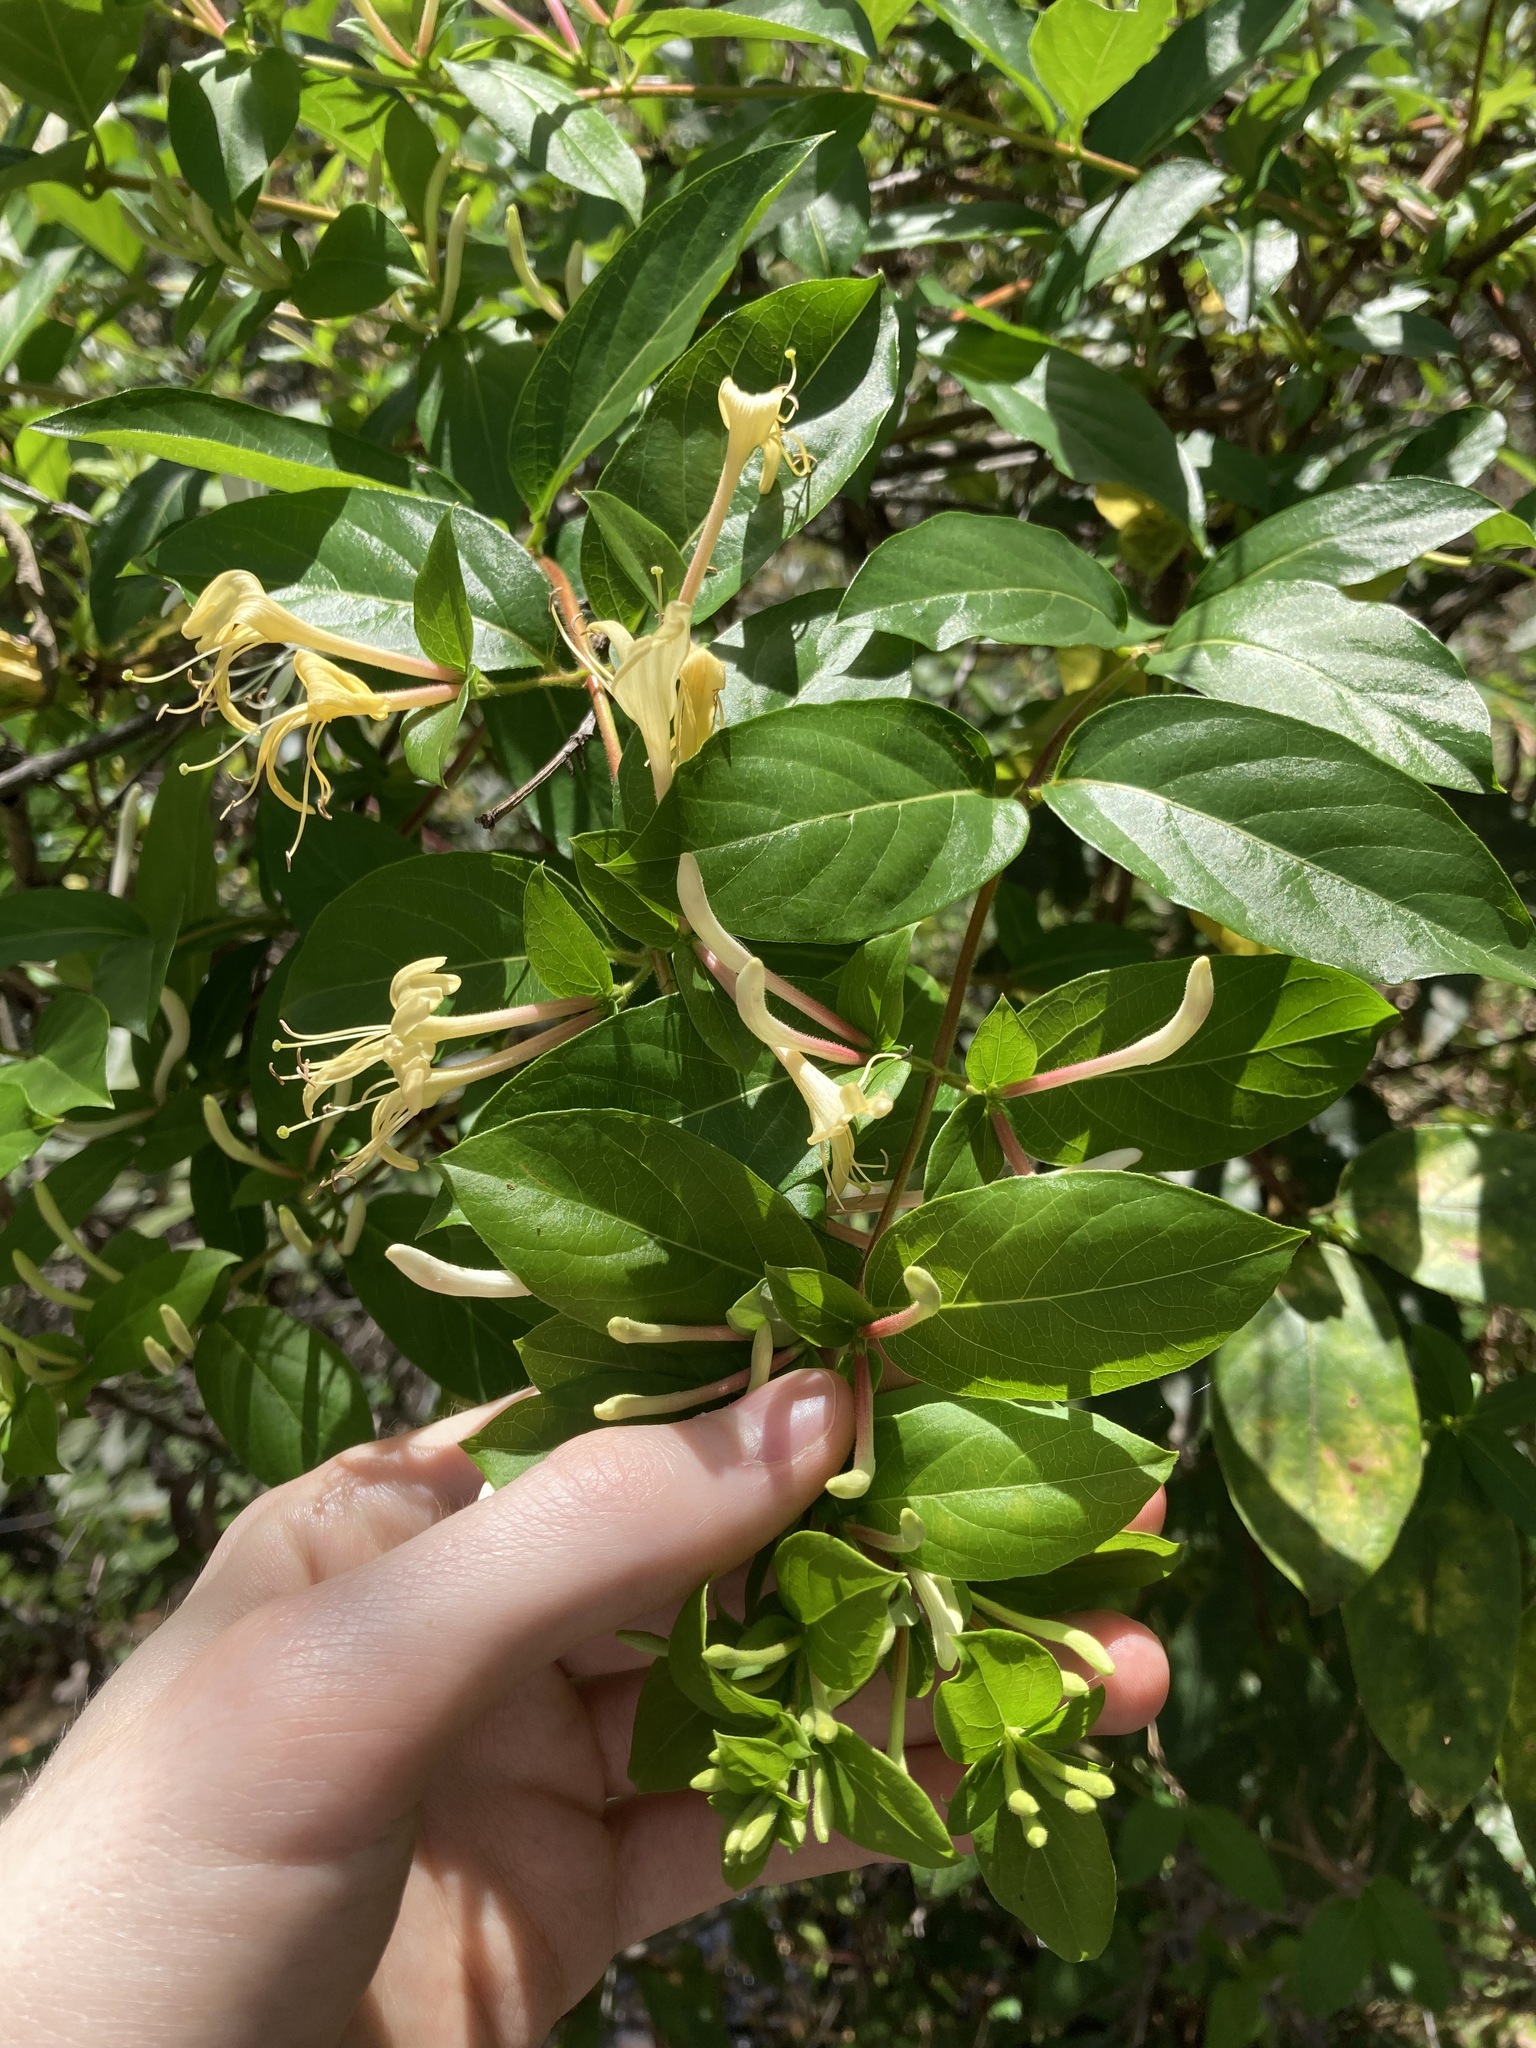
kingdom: Plantae
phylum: Tracheophyta
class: Magnoliopsida
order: Dipsacales
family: Caprifoliaceae
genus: Lonicera
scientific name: Lonicera japonica
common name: Japanese honeysuckle
